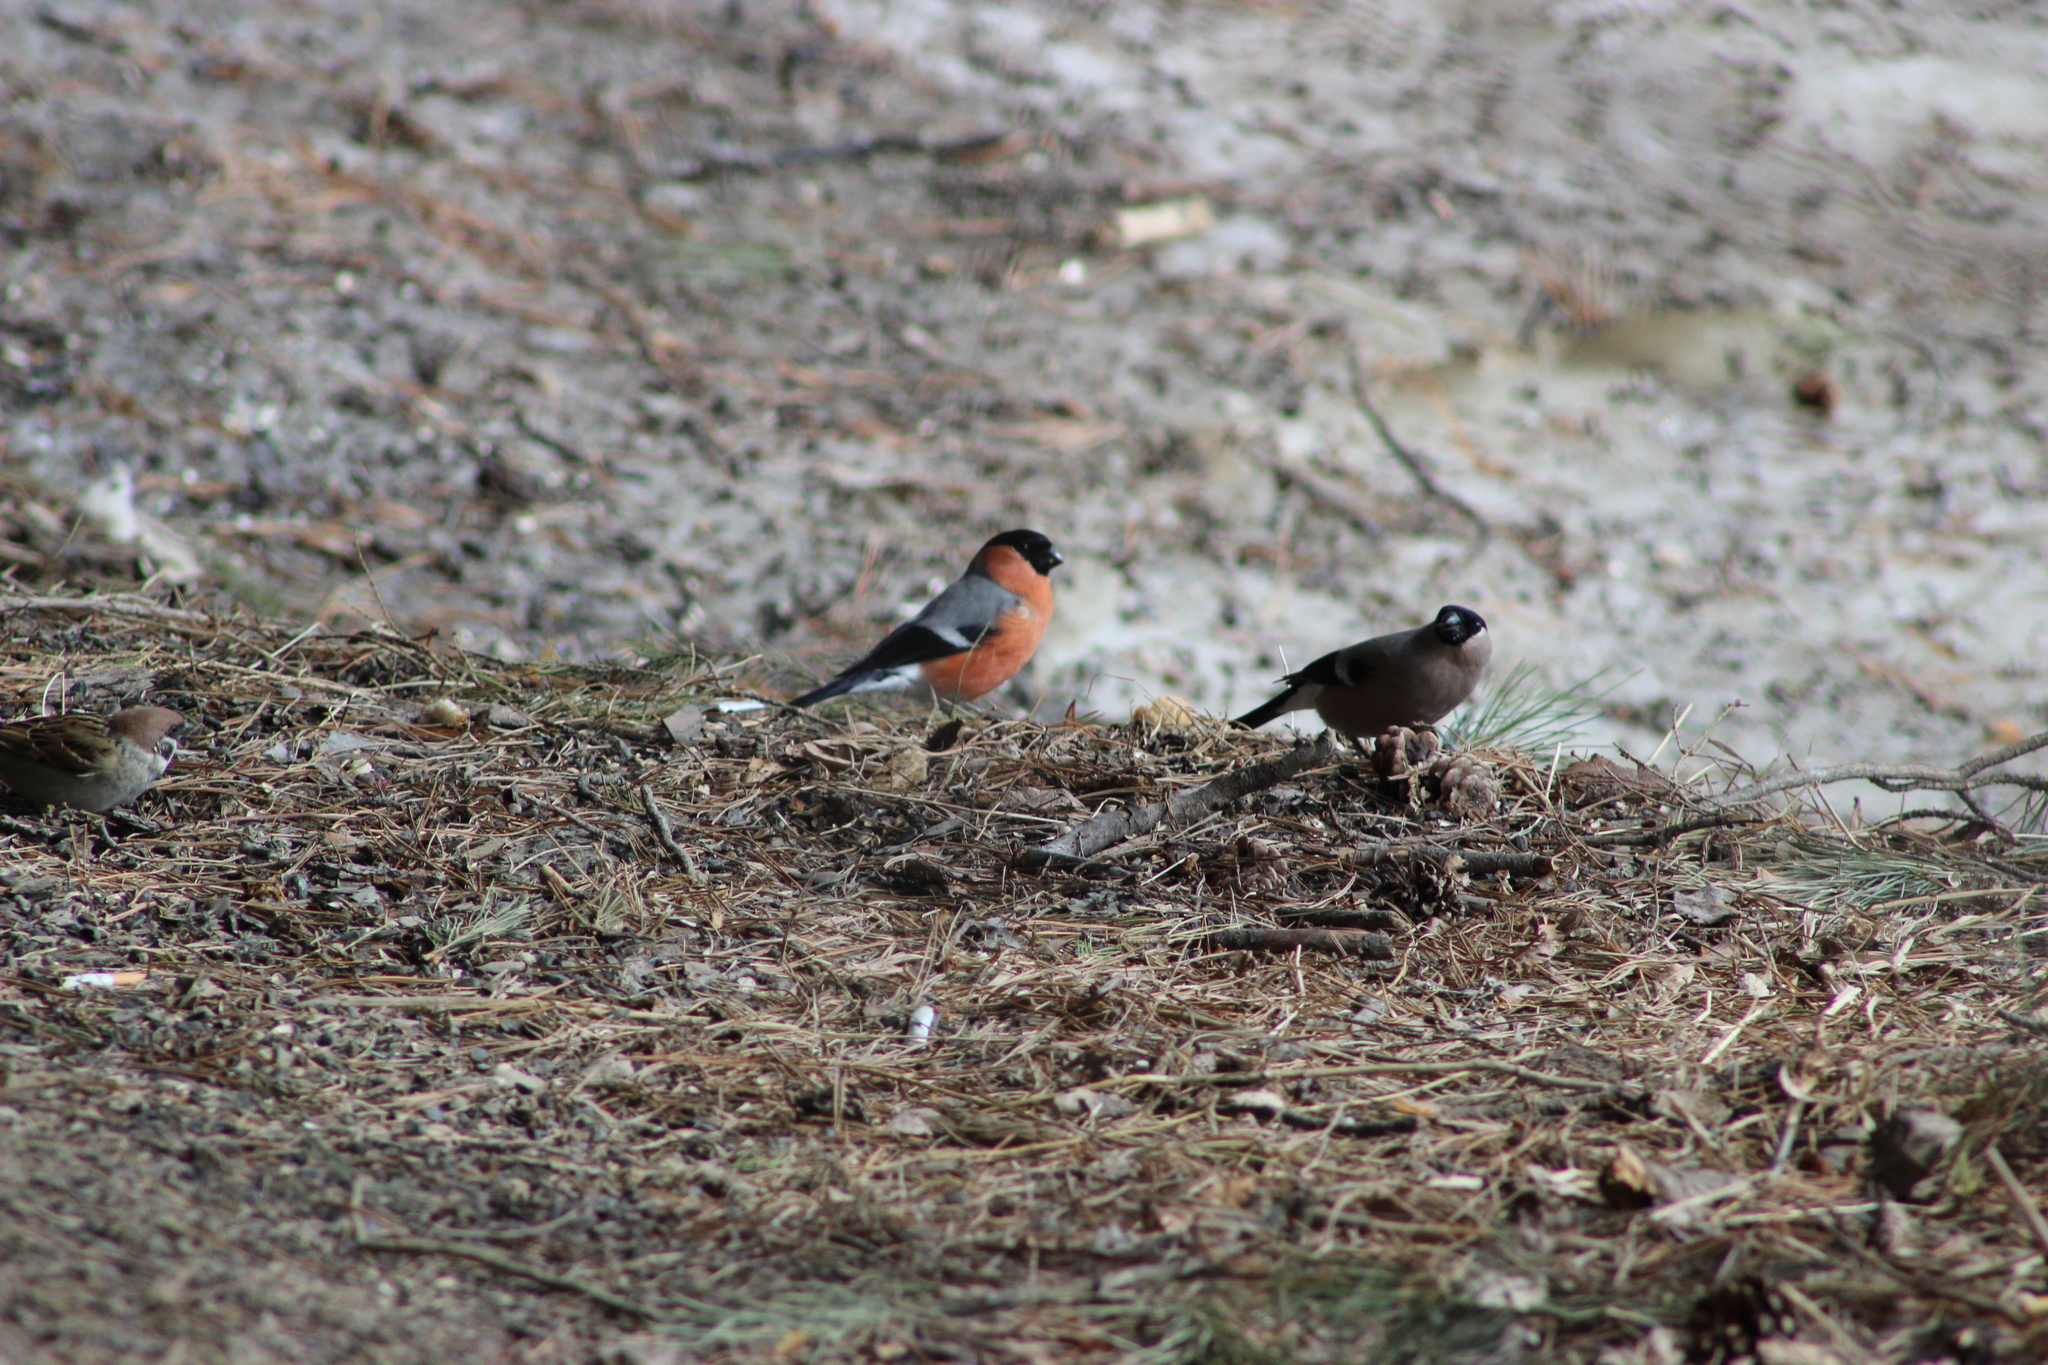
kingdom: Animalia
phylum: Chordata
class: Aves
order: Passeriformes
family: Fringillidae
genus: Pyrrhula
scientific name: Pyrrhula pyrrhula
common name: Eurasian bullfinch
